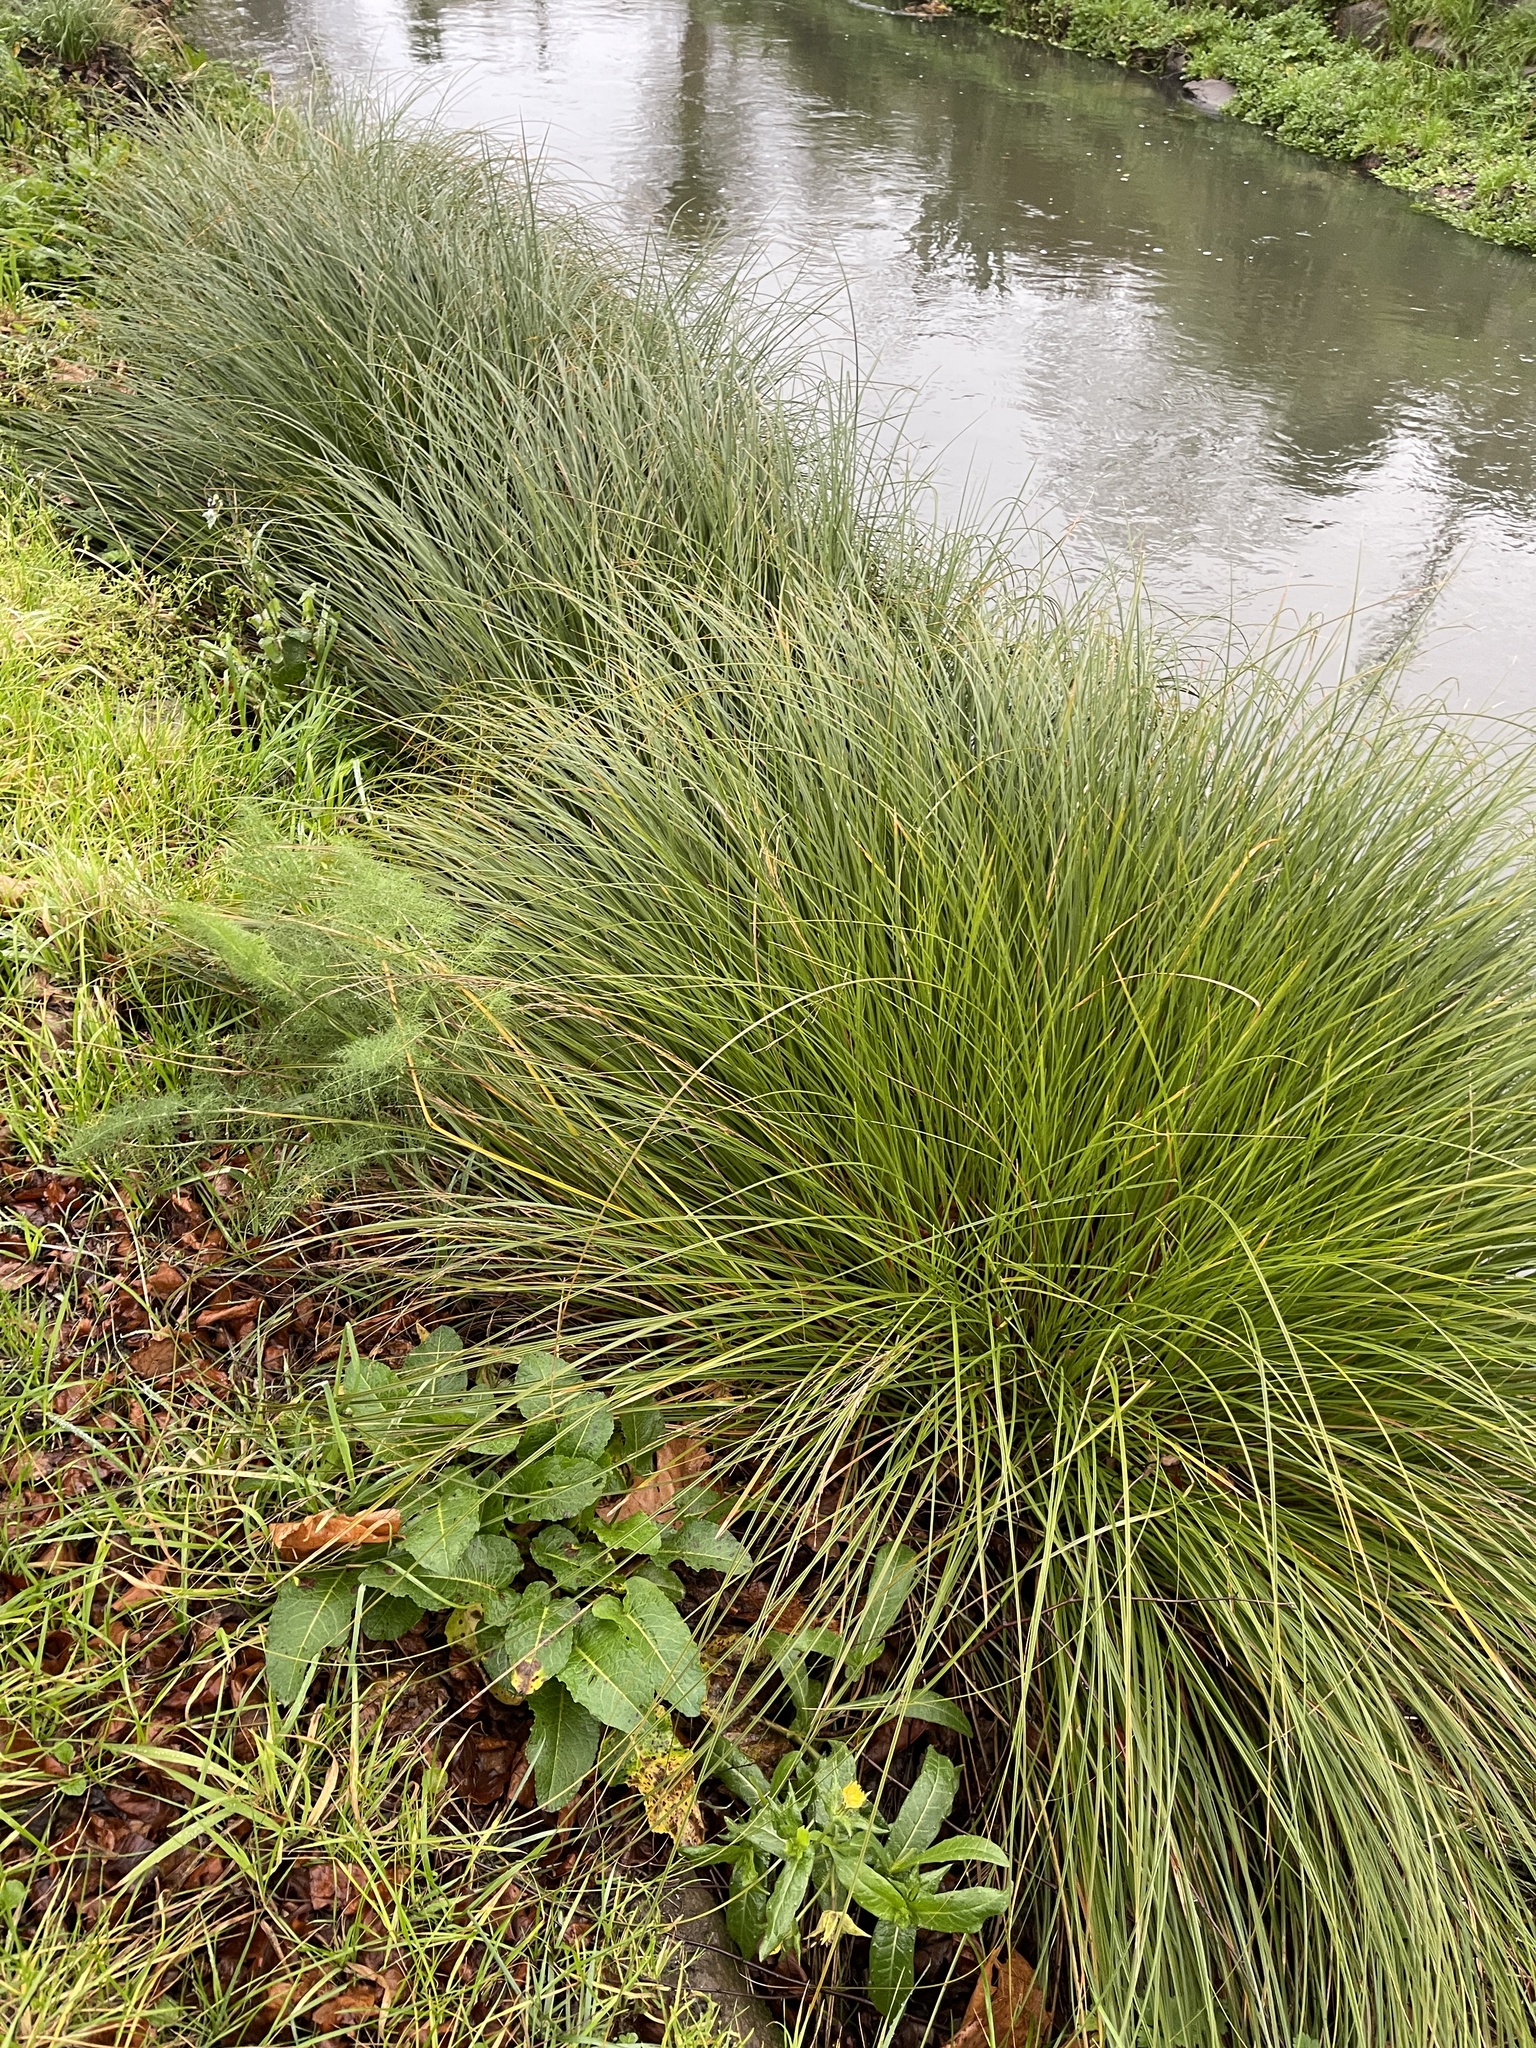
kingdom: Plantae
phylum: Tracheophyta
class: Liliopsida
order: Poales
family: Cyperaceae
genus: Carex
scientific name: Carex secta
